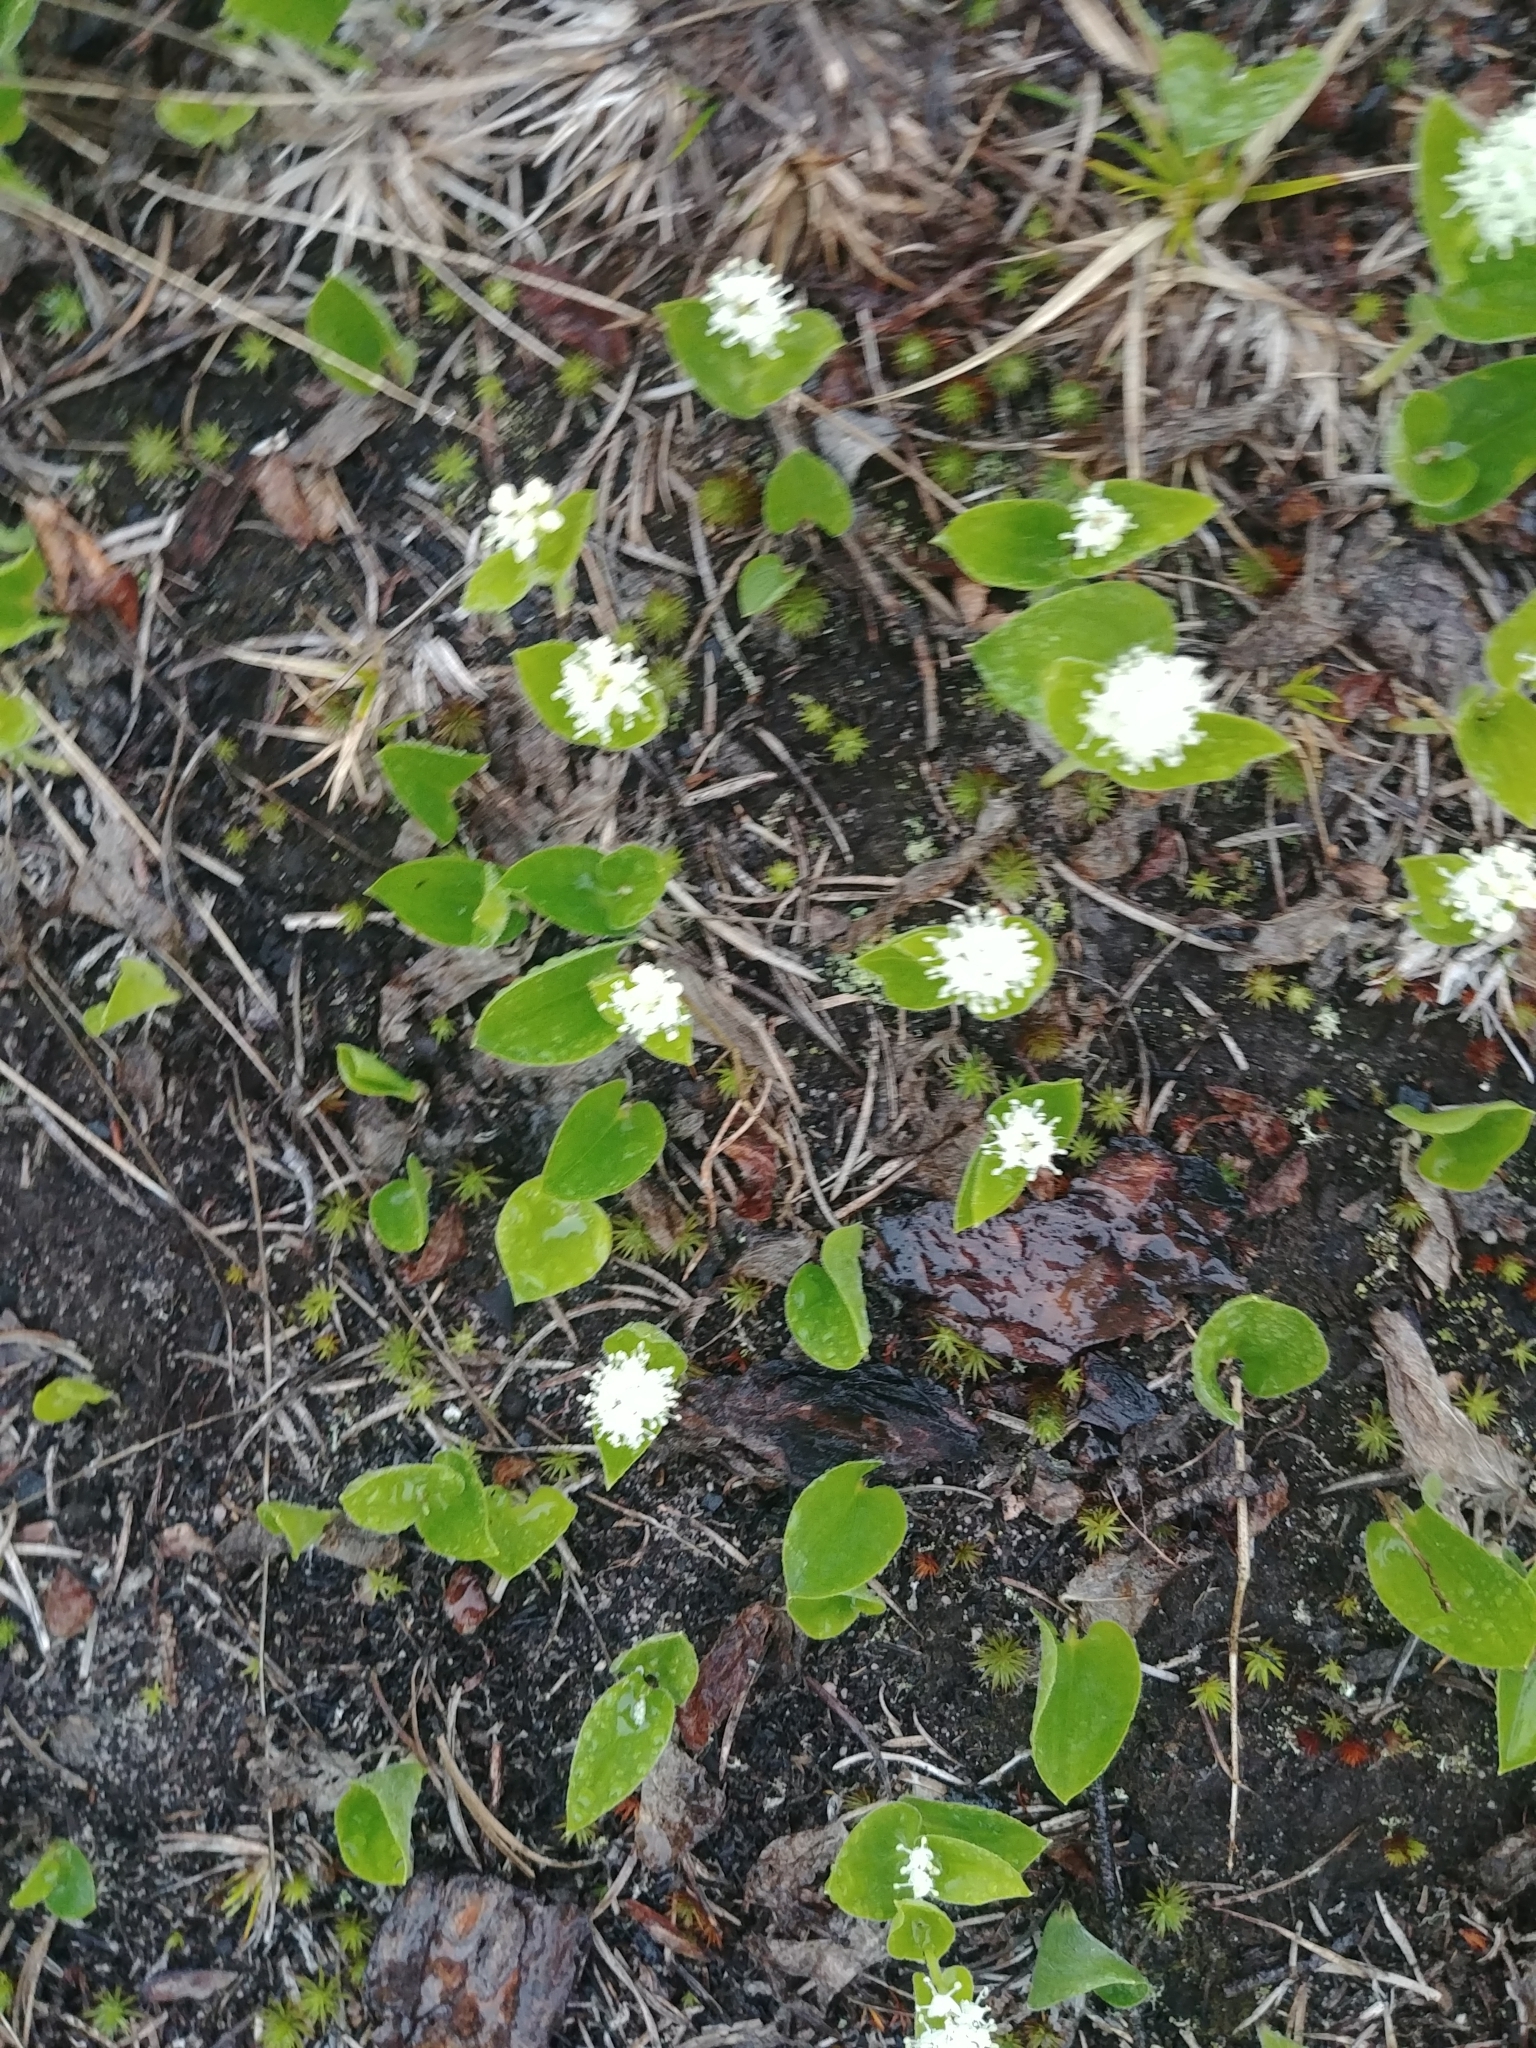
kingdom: Plantae
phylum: Tracheophyta
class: Liliopsida
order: Asparagales
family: Asparagaceae
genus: Maianthemum
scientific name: Maianthemum canadense
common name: False lily-of-the-valley
